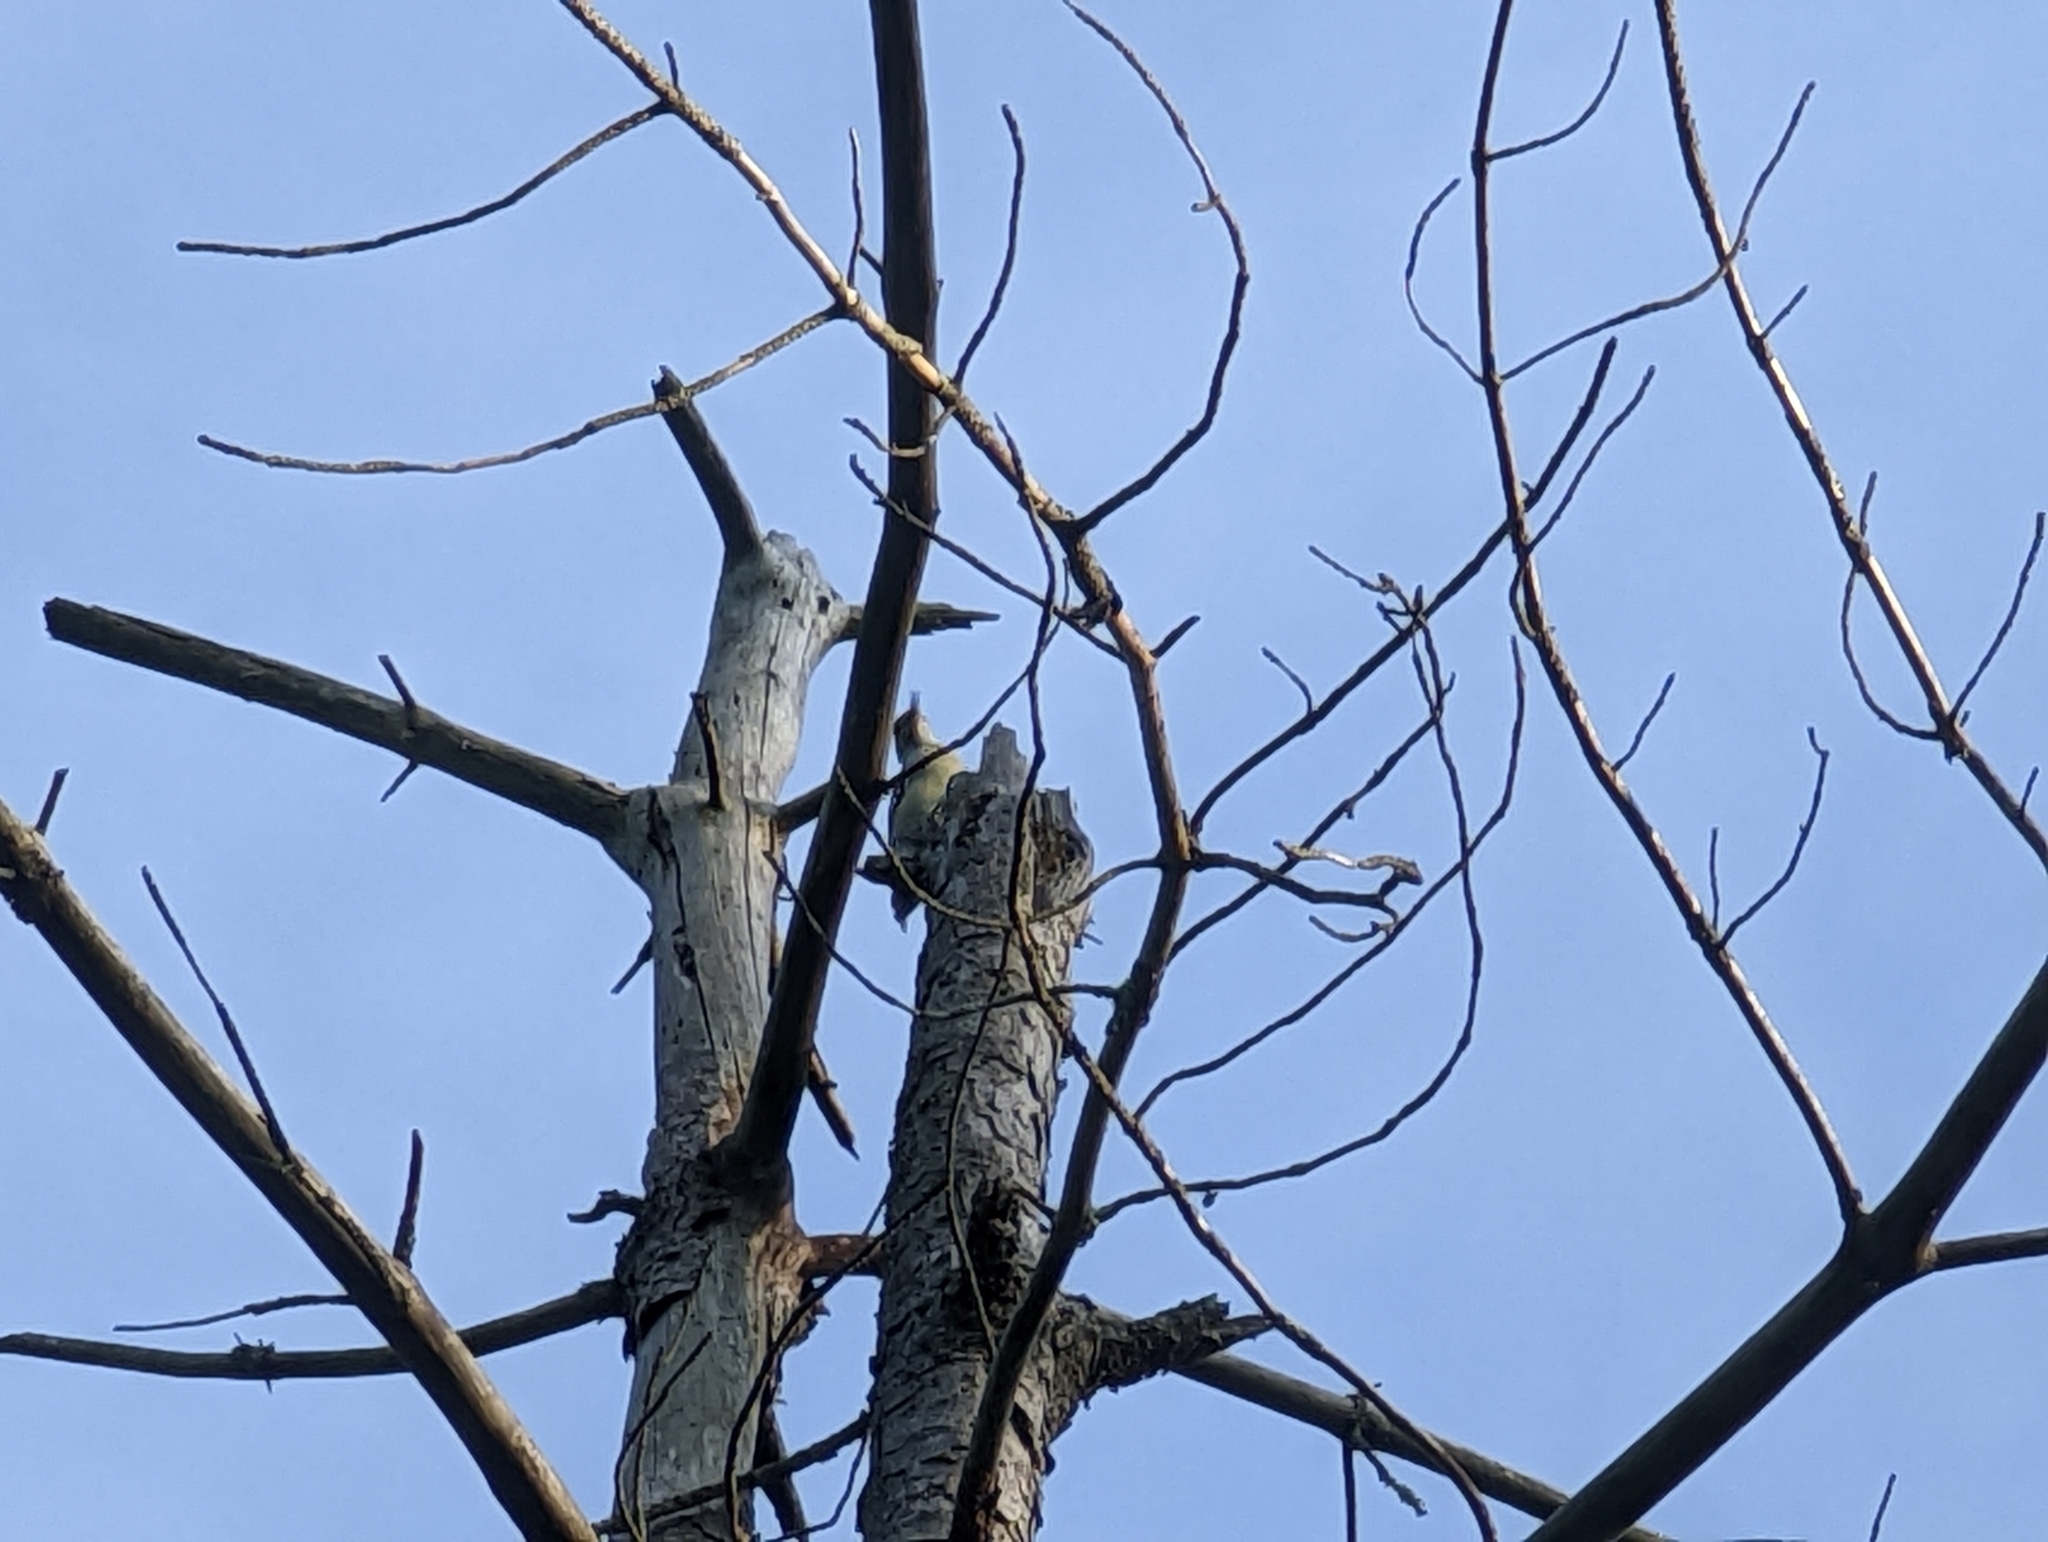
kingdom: Animalia
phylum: Chordata
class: Aves
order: Piciformes
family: Picidae
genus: Melanerpes
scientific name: Melanerpes carolinus
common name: Red-bellied woodpecker
